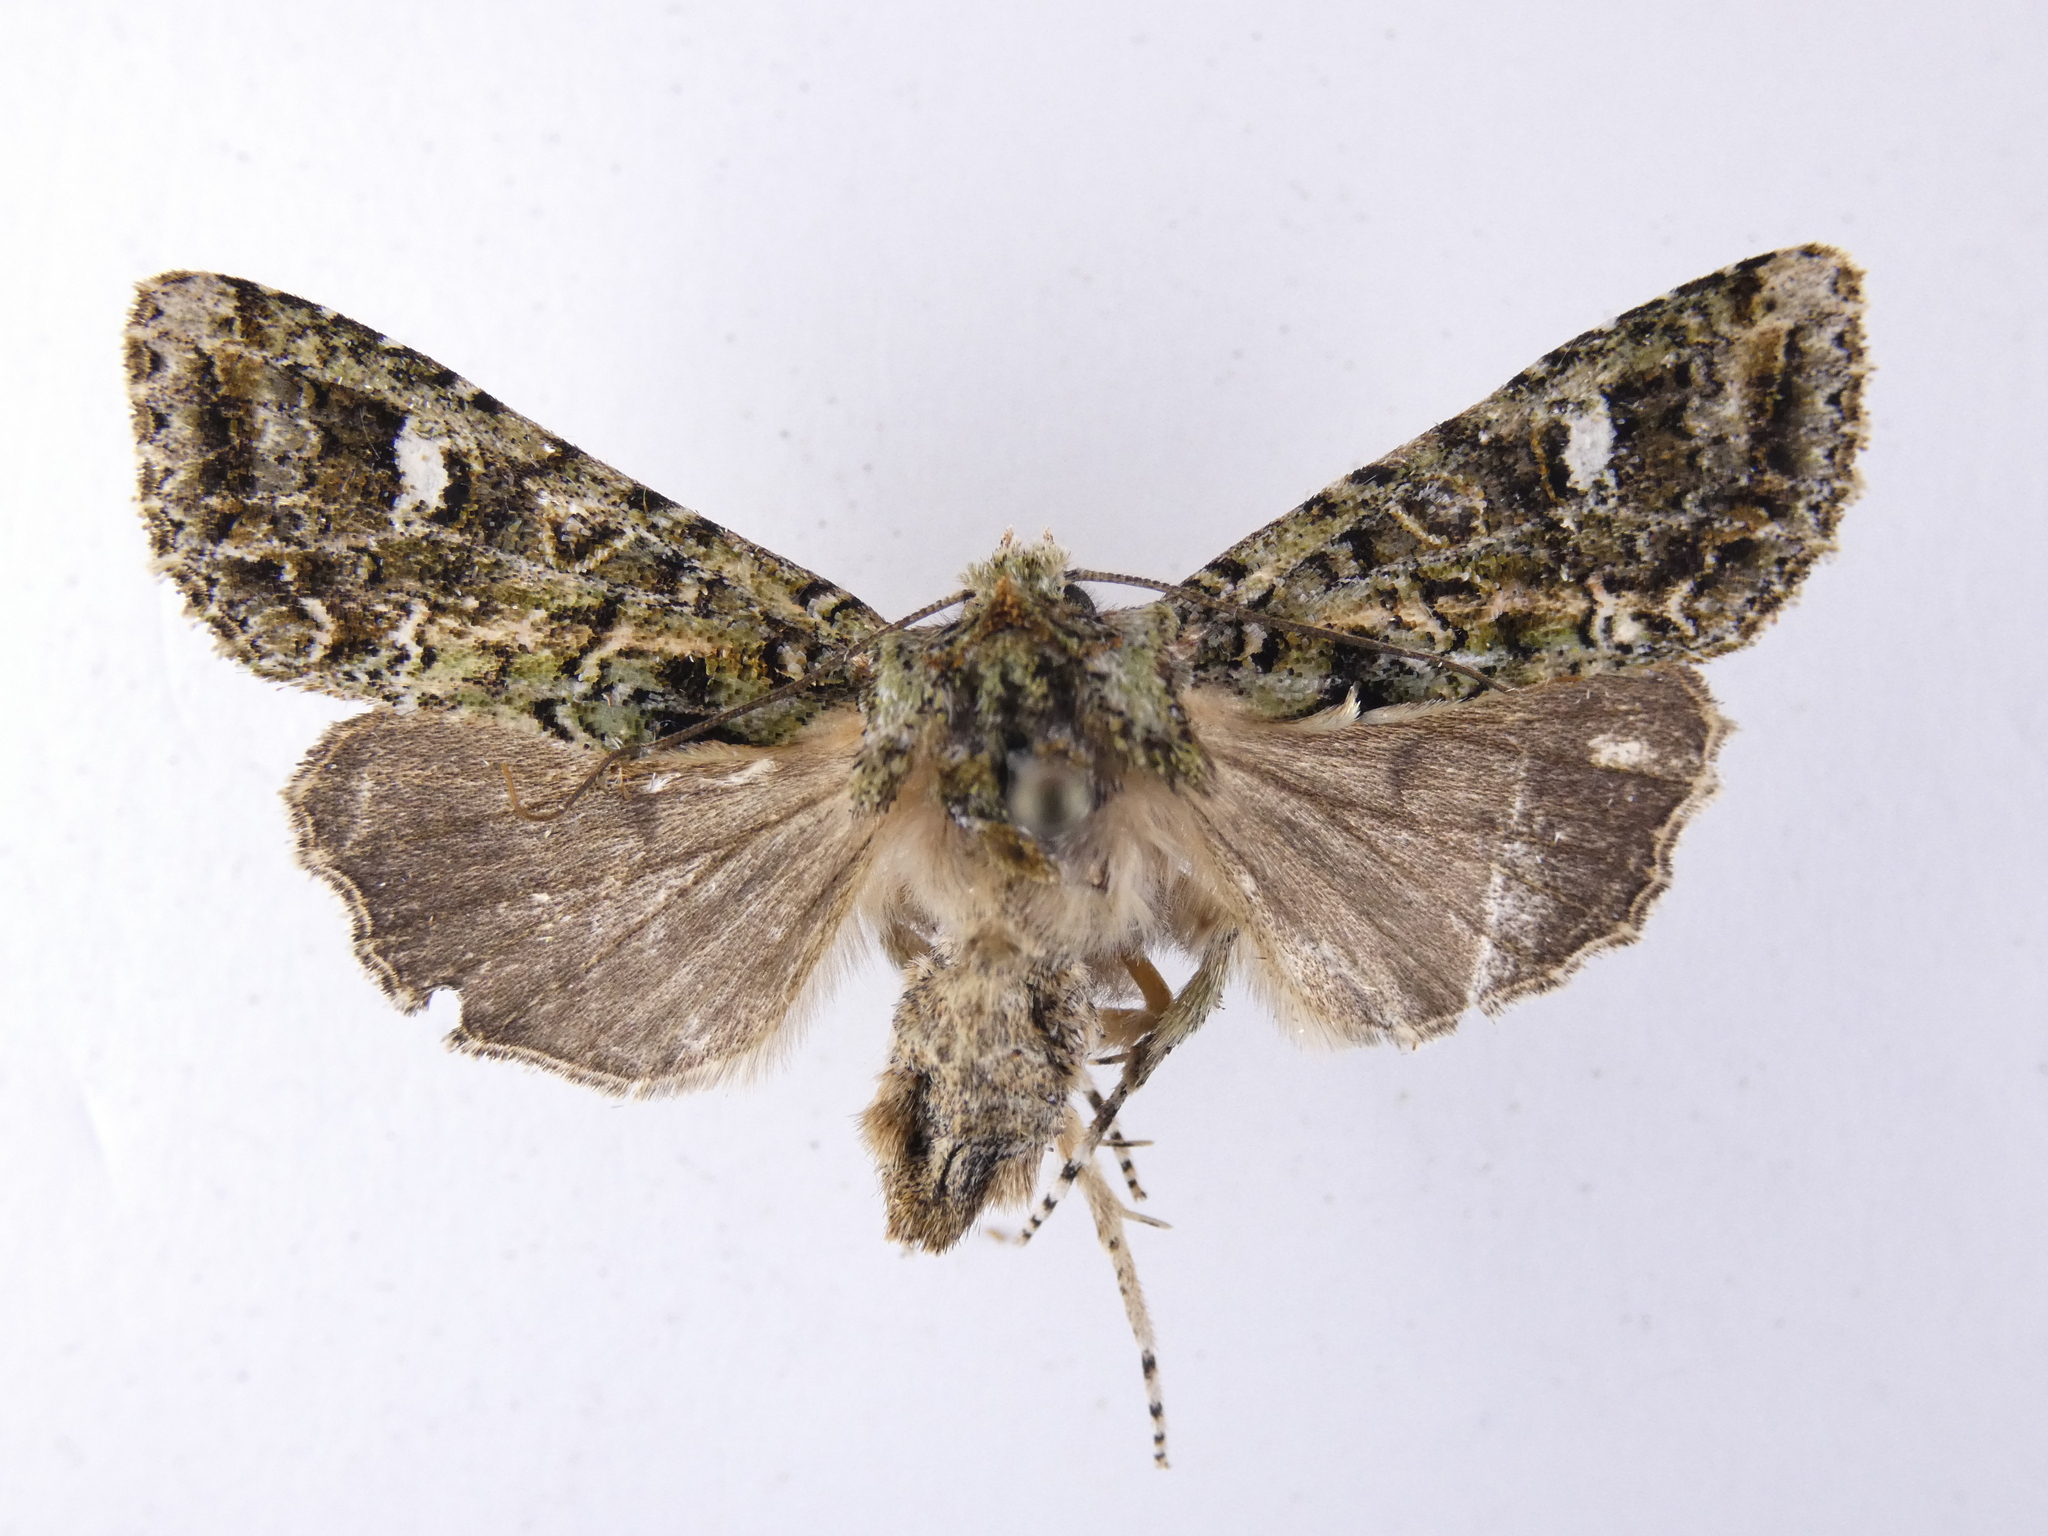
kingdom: Animalia
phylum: Arthropoda
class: Insecta
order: Lepidoptera
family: Noctuidae
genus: Ichneutica
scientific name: Ichneutica
